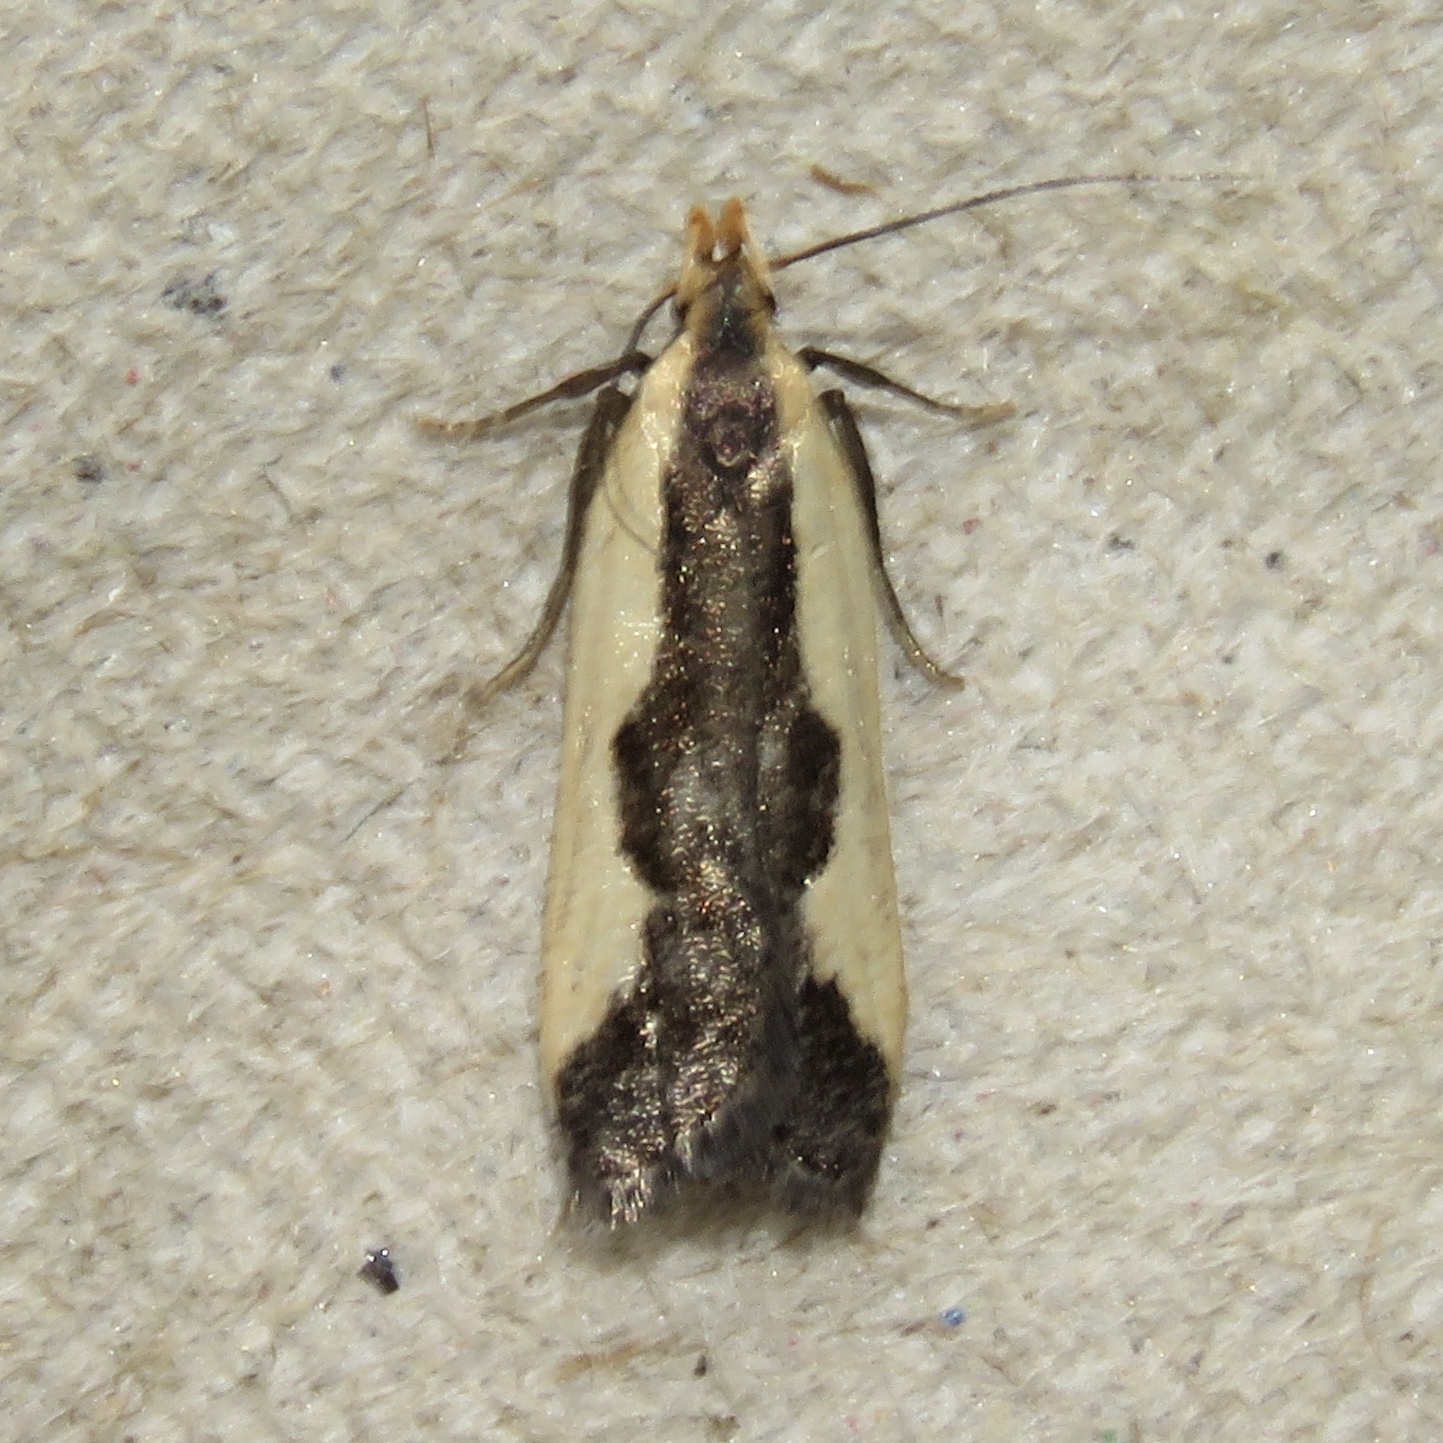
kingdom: Animalia
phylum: Arthropoda
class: Insecta
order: Lepidoptera
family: Gelechiidae
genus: Dichomeris
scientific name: Dichomeris inserrata
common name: Indented dichomeris moth
